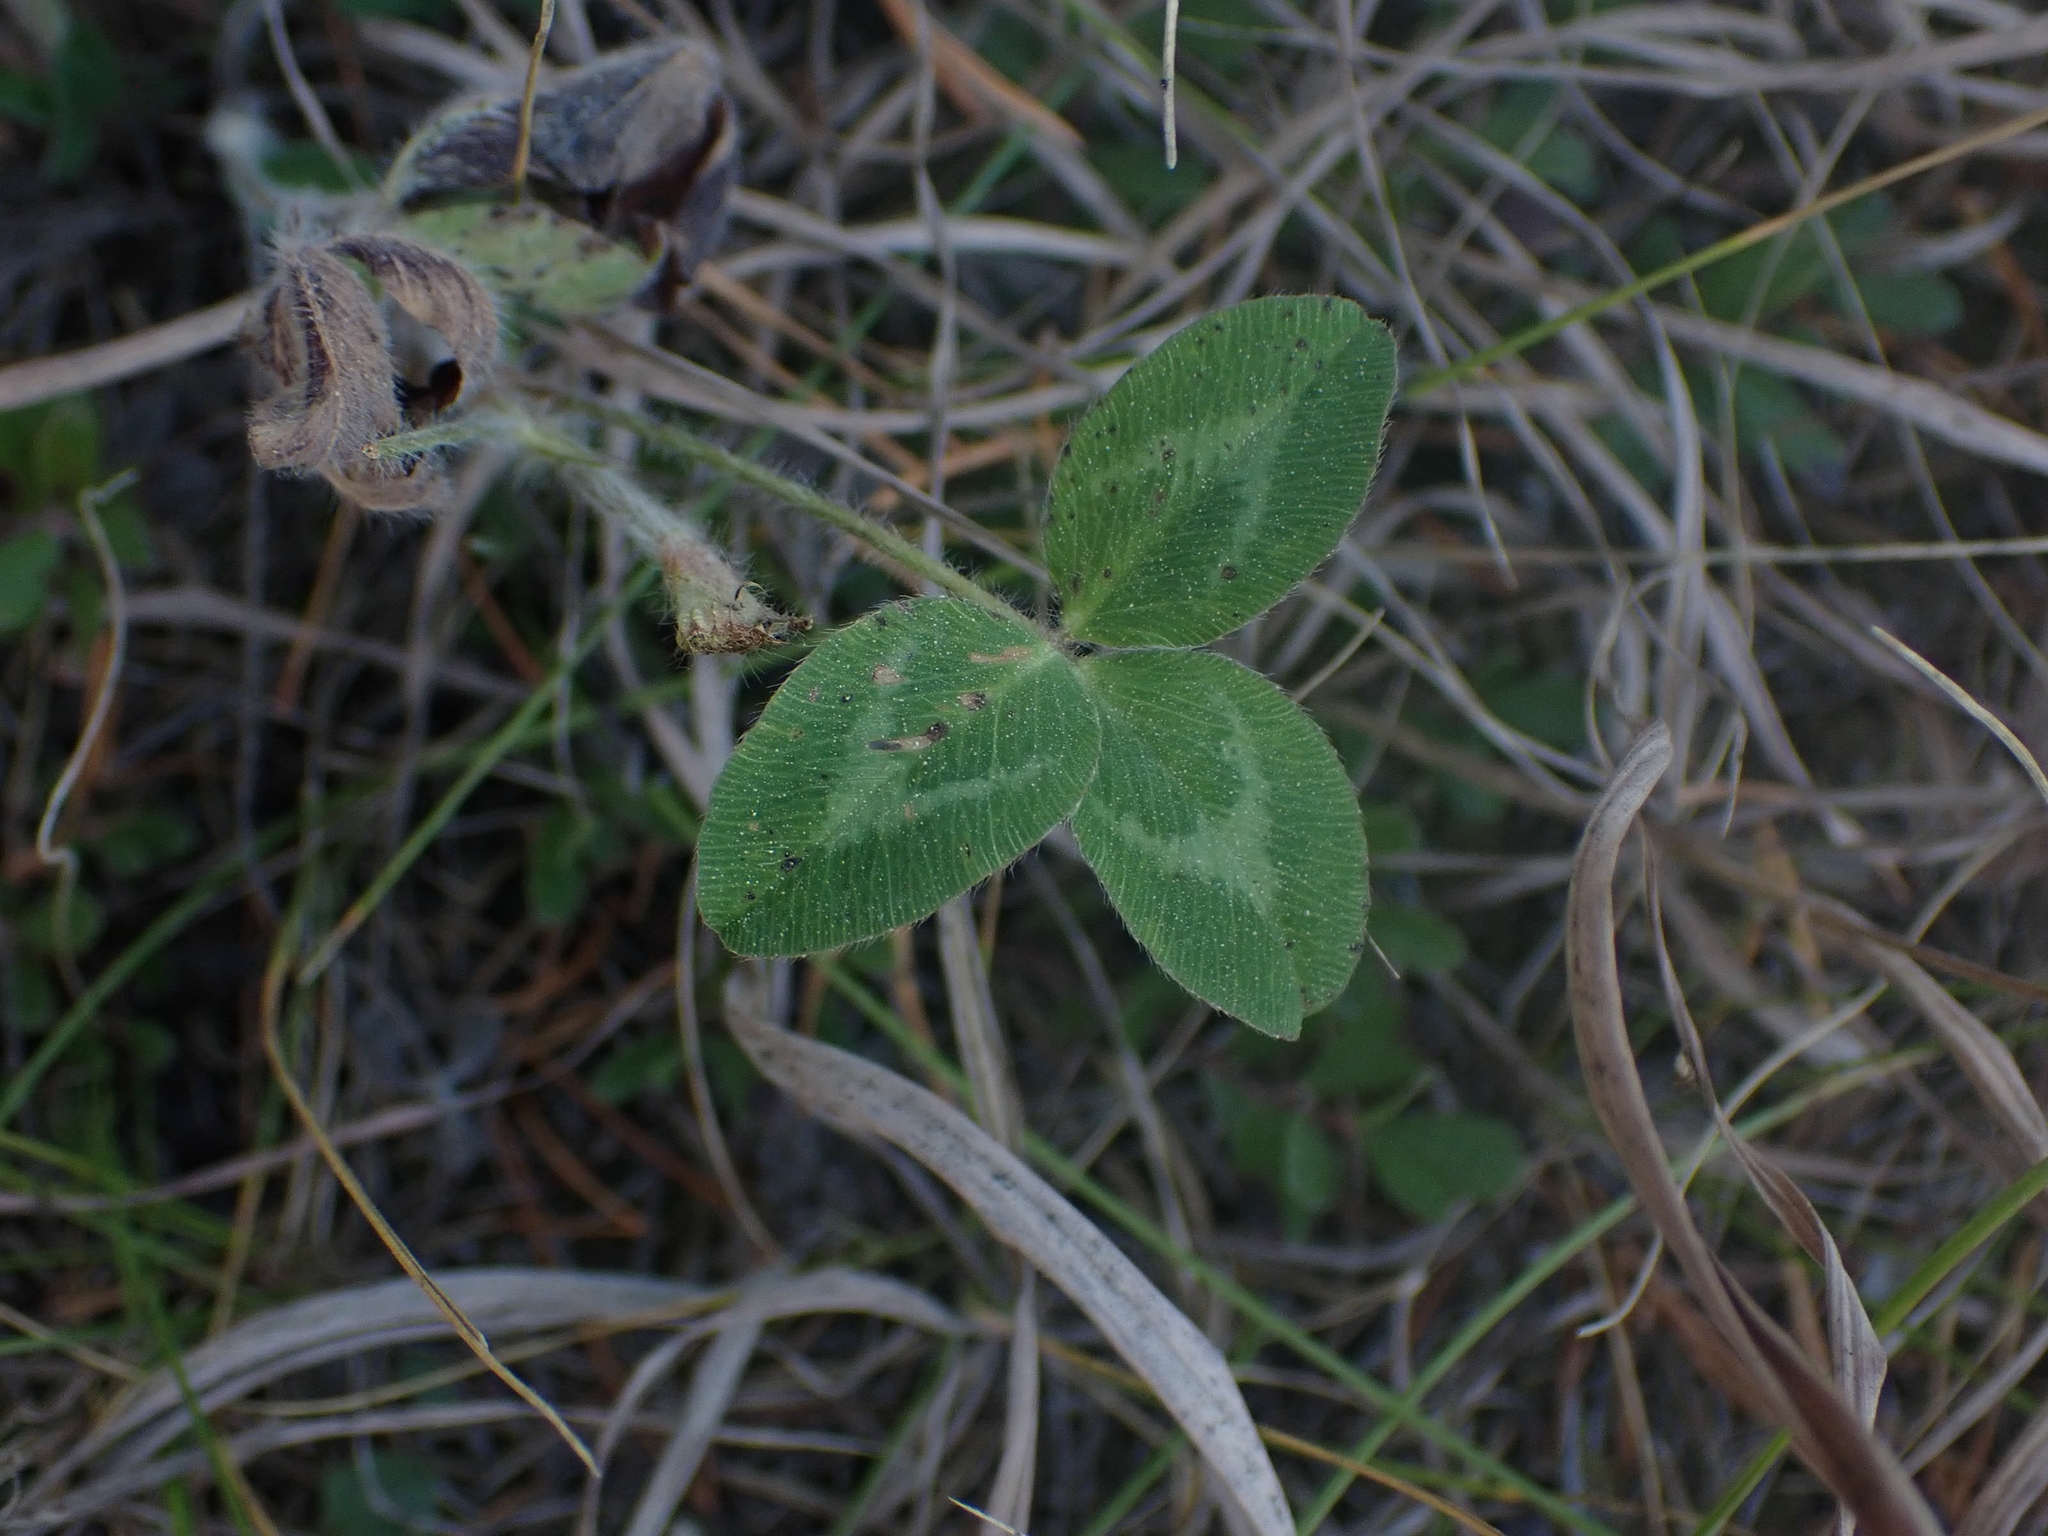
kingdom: Plantae
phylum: Tracheophyta
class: Magnoliopsida
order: Fabales
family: Fabaceae
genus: Trifolium
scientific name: Trifolium pratense
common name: Red clover
